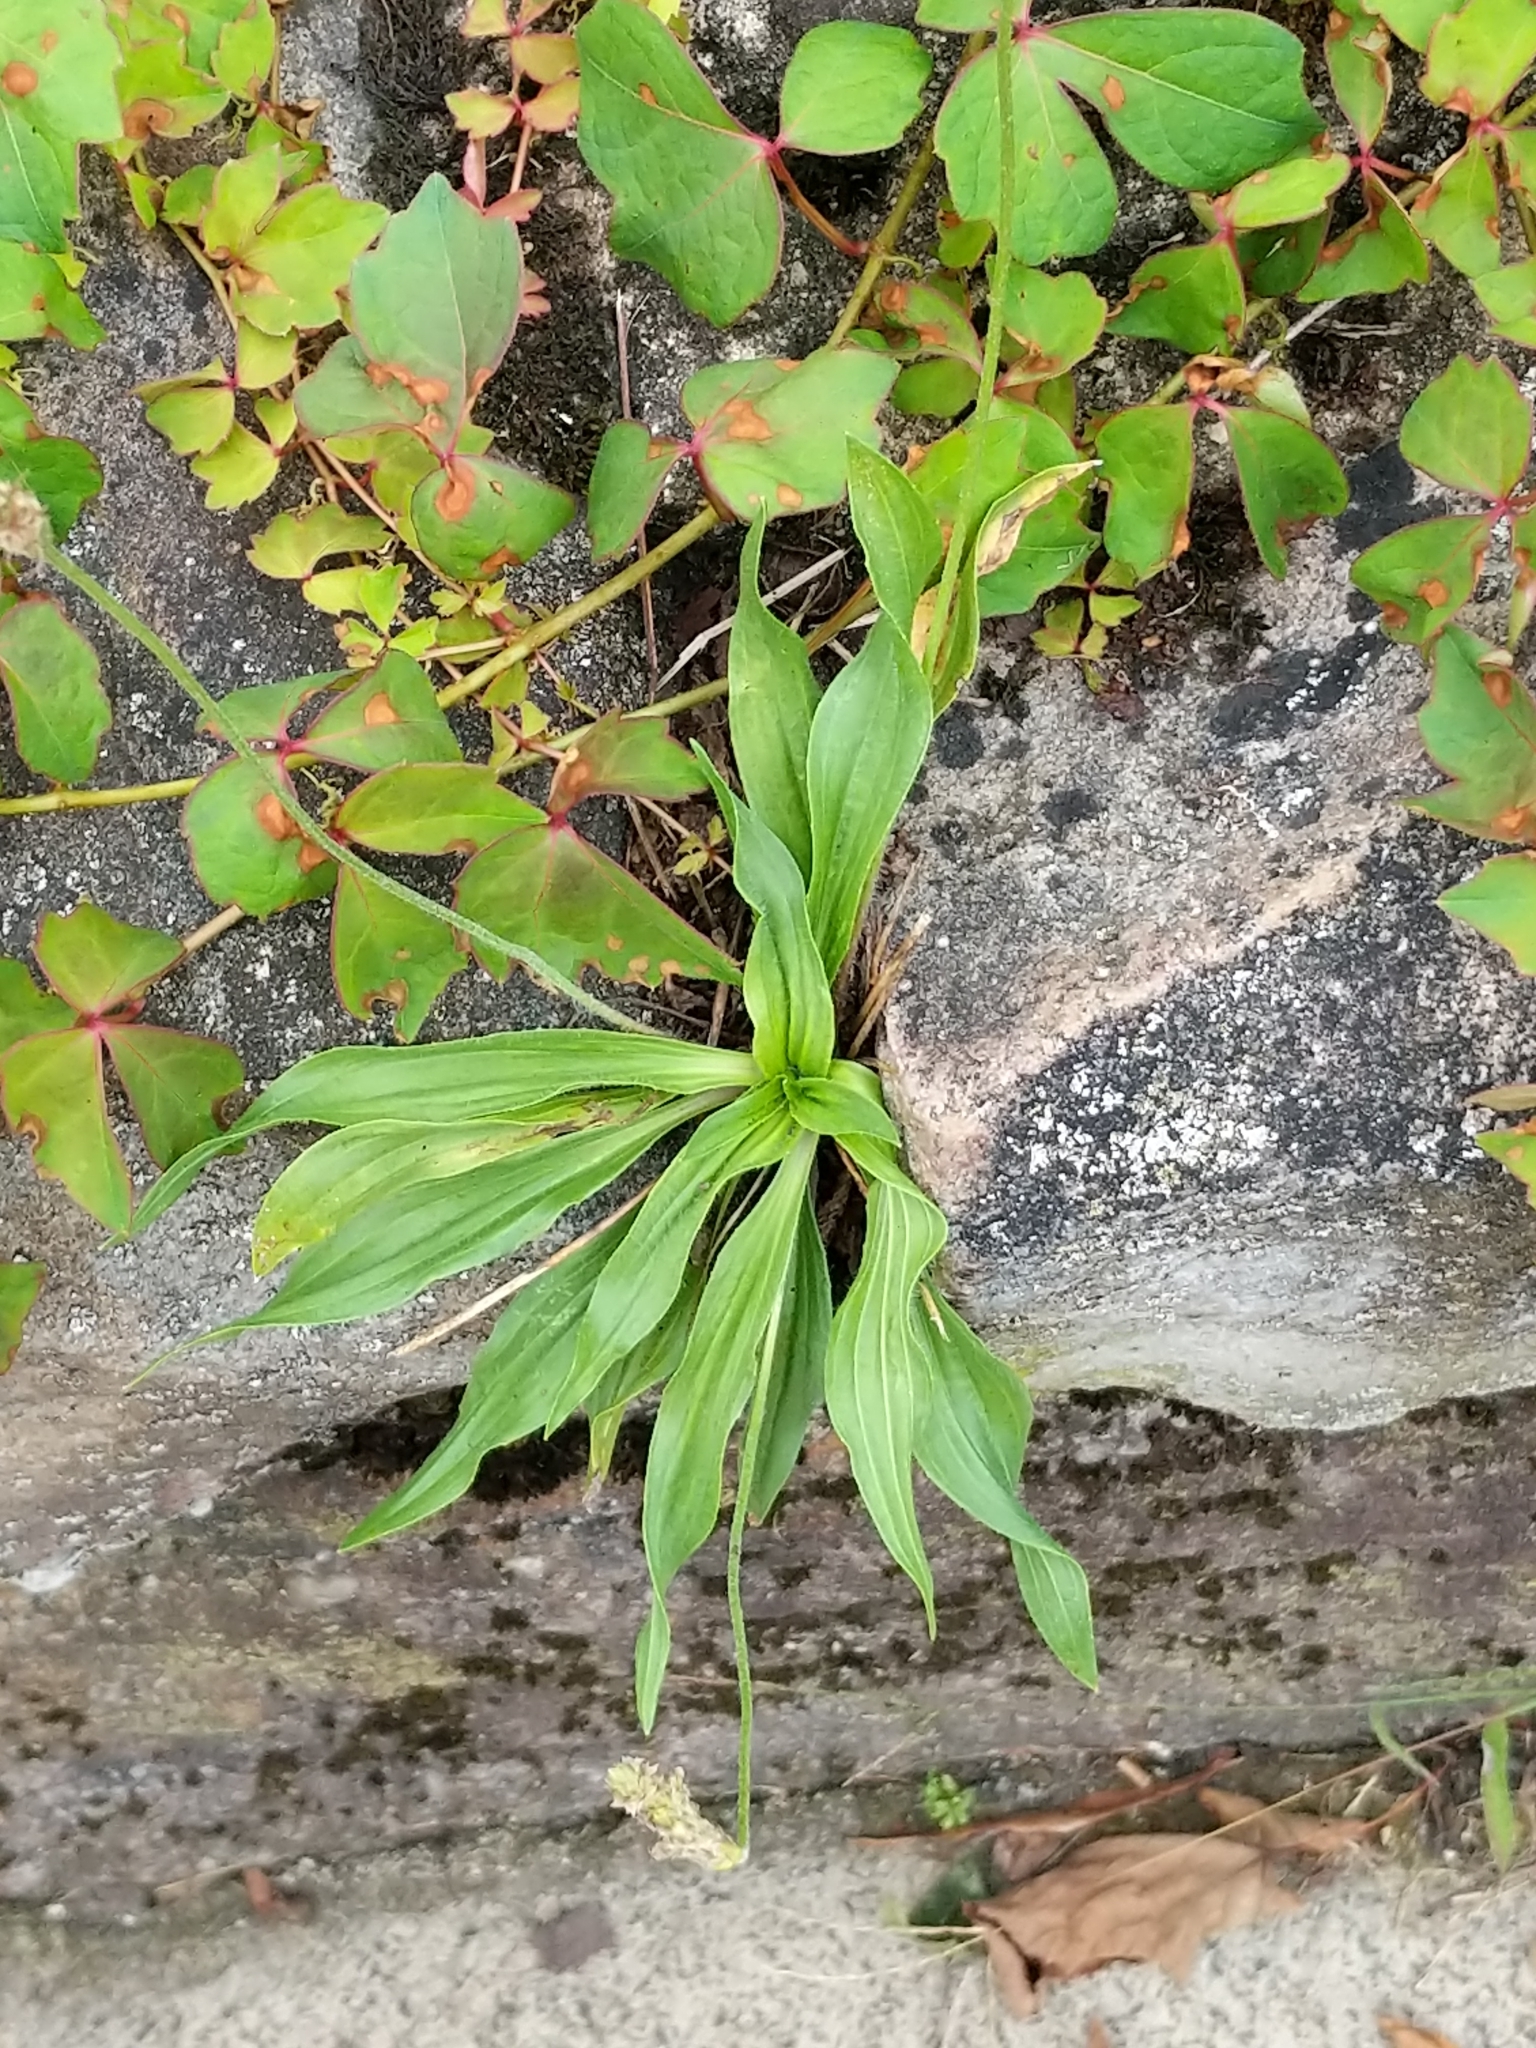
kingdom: Plantae
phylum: Tracheophyta
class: Magnoliopsida
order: Lamiales
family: Plantaginaceae
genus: Plantago
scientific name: Plantago lanceolata
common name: Ribwort plantain
